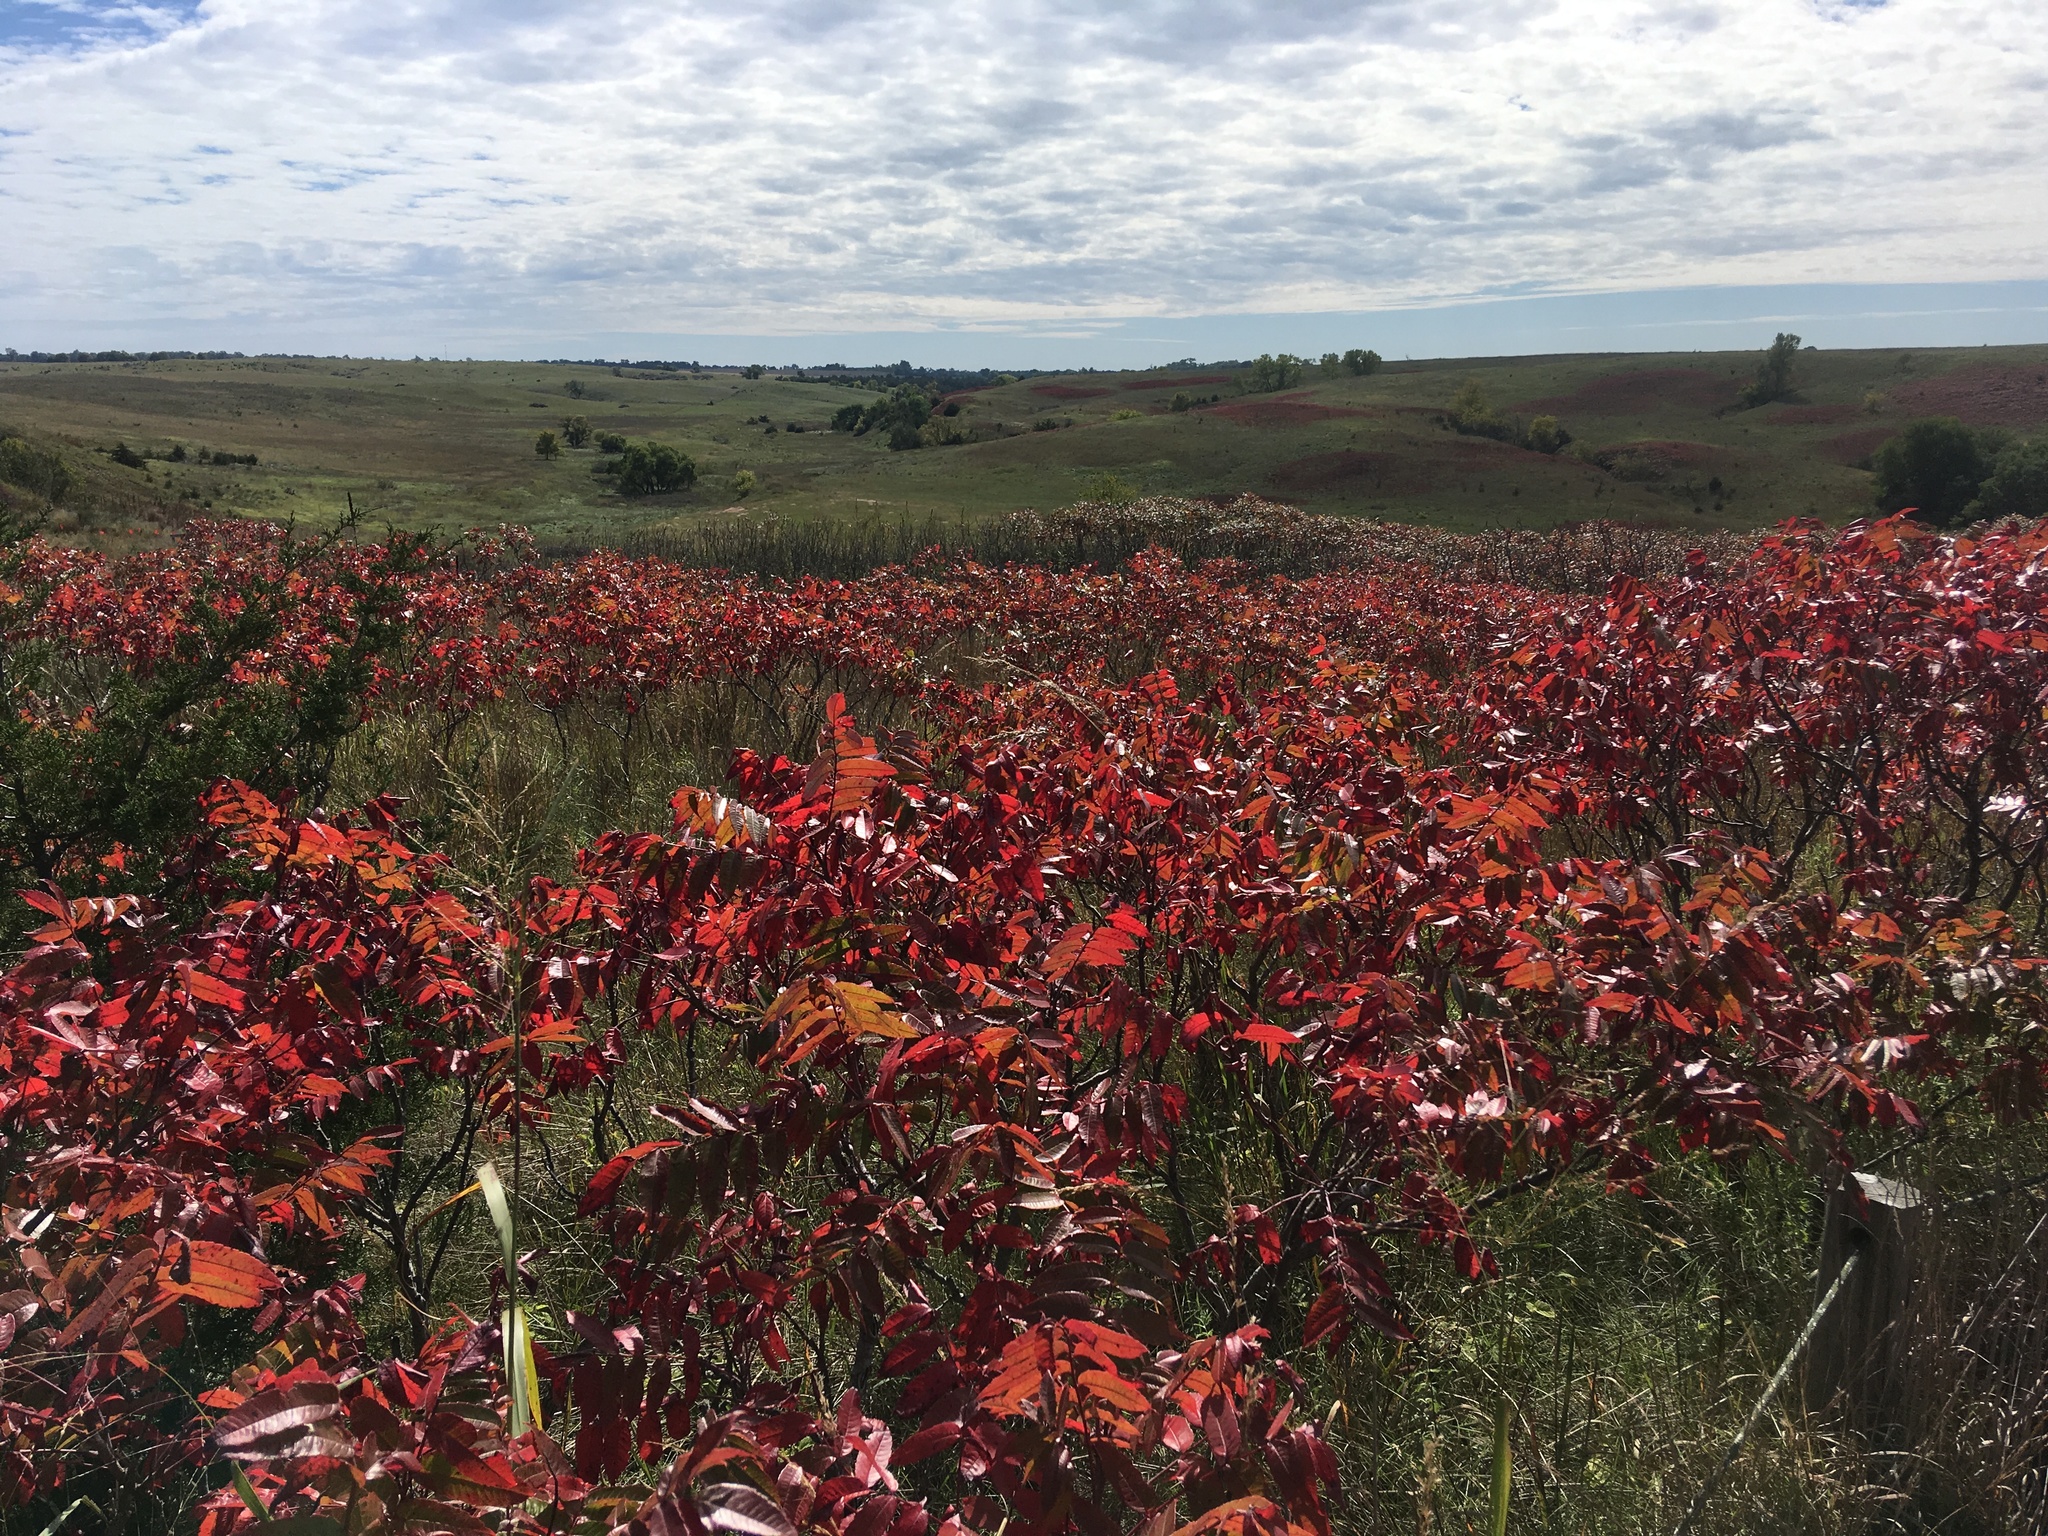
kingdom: Plantae
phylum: Tracheophyta
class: Magnoliopsida
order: Sapindales
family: Anacardiaceae
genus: Rhus
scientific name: Rhus glabra
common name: Scarlet sumac
